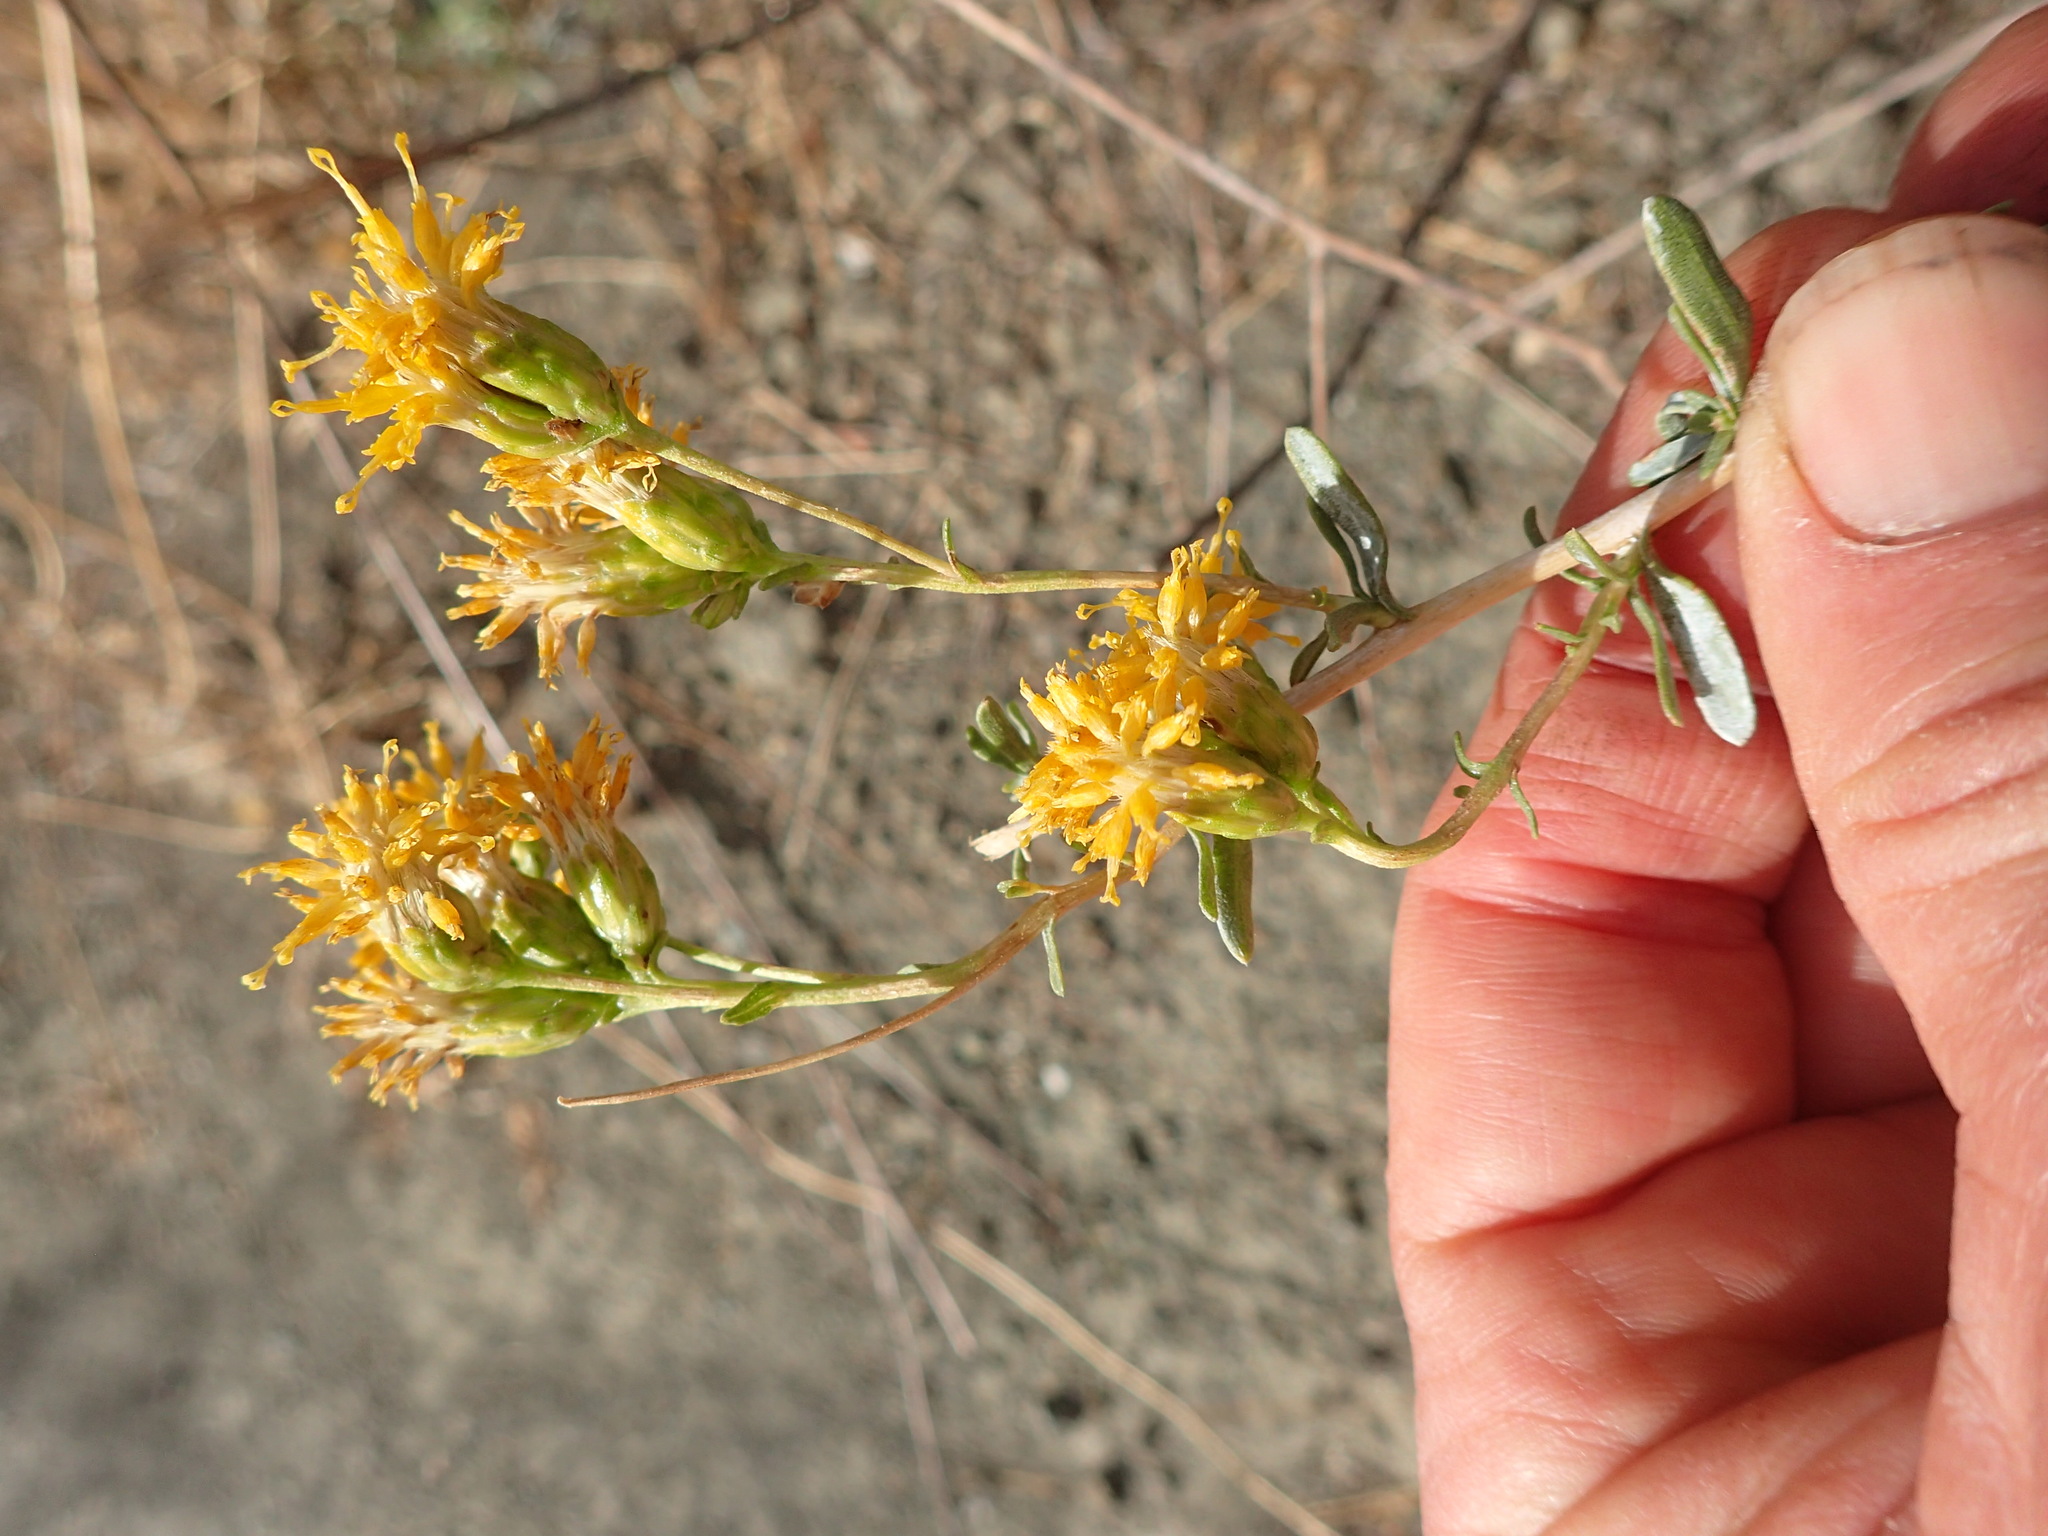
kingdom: Plantae
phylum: Tracheophyta
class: Magnoliopsida
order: Asterales
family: Asteraceae
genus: Isocoma
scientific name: Isocoma menziesii
